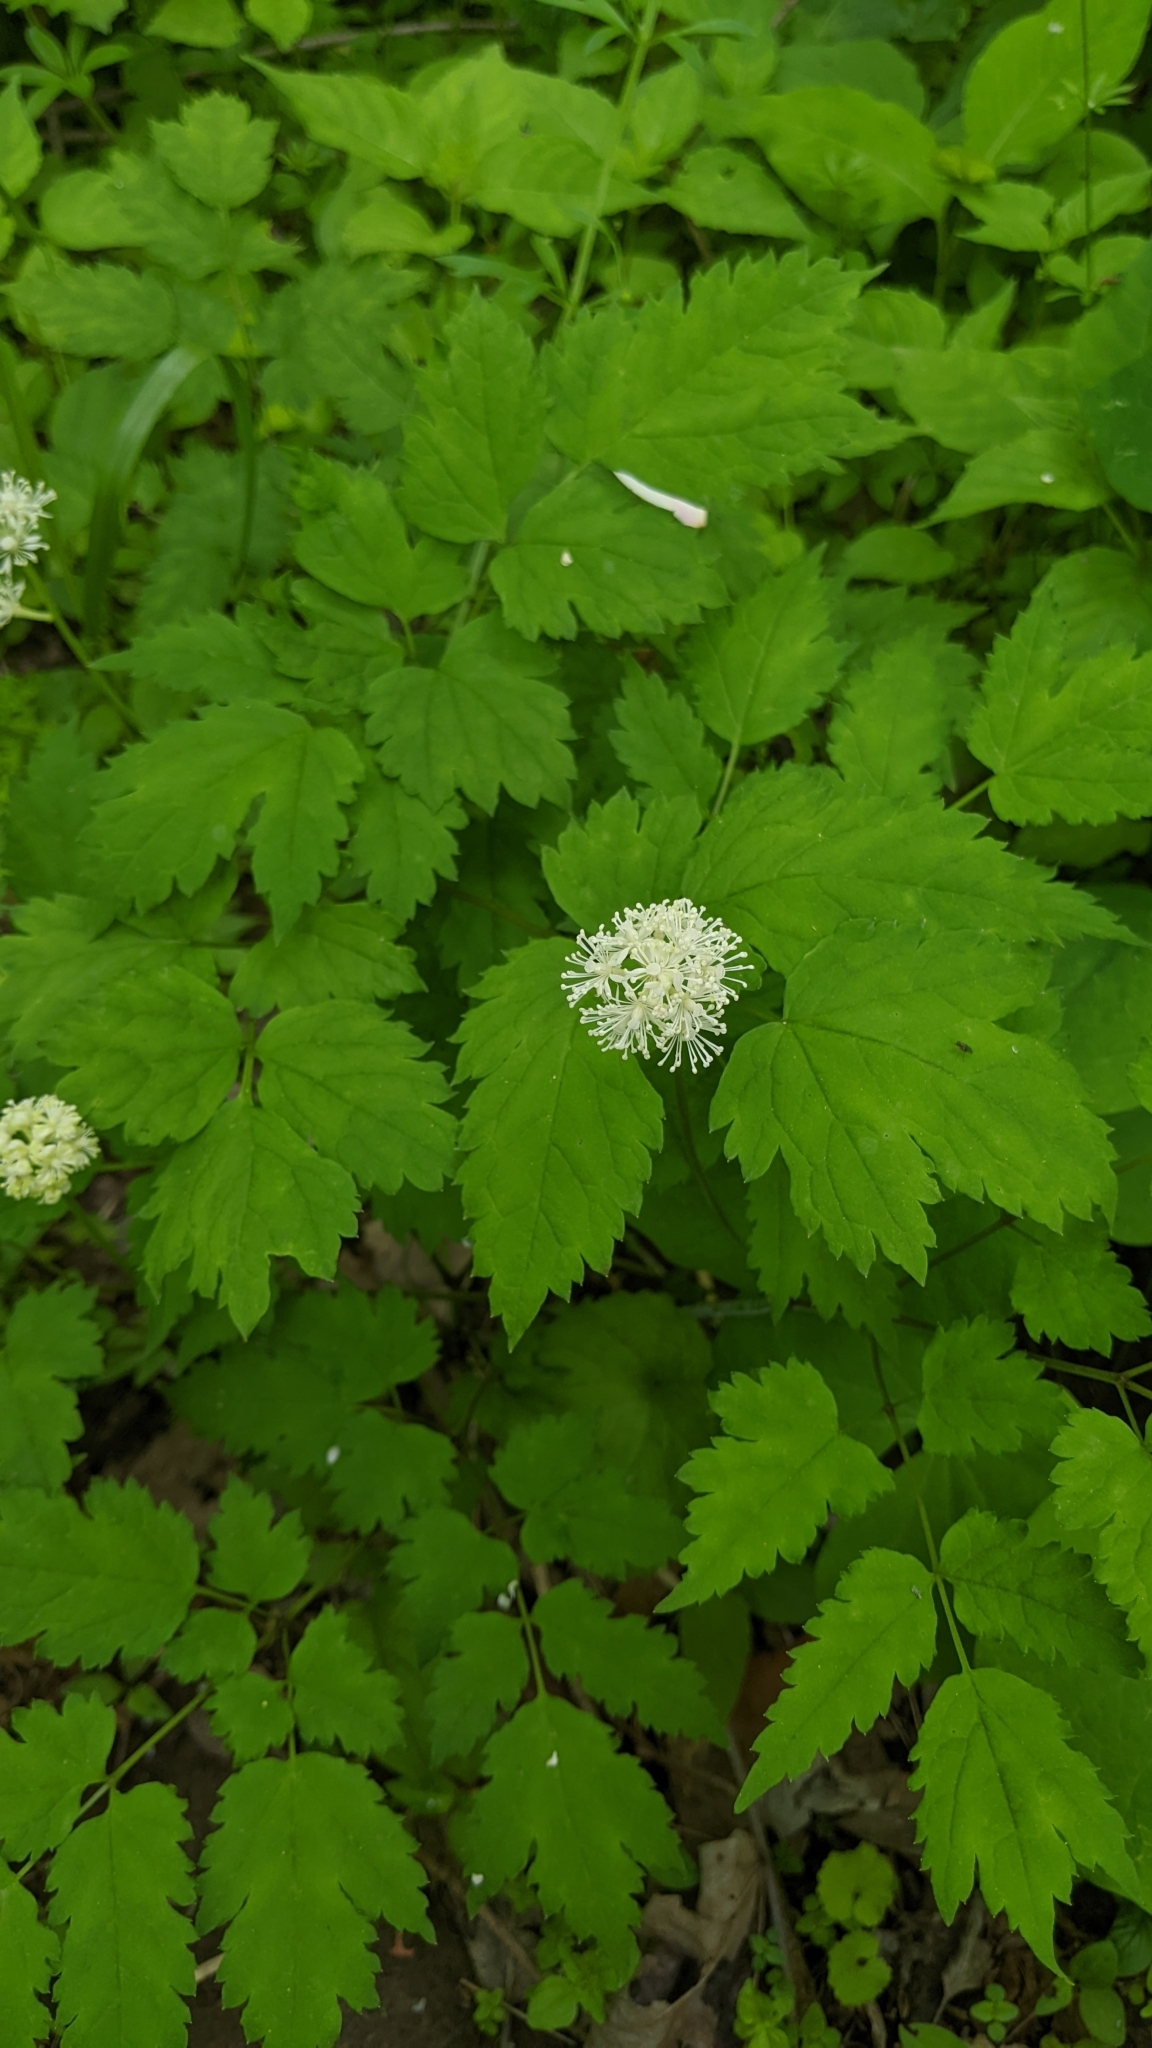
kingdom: Plantae
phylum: Tracheophyta
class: Magnoliopsida
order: Ranunculales
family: Ranunculaceae
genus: Actaea
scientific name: Actaea pachypoda
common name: Doll's-eyes
